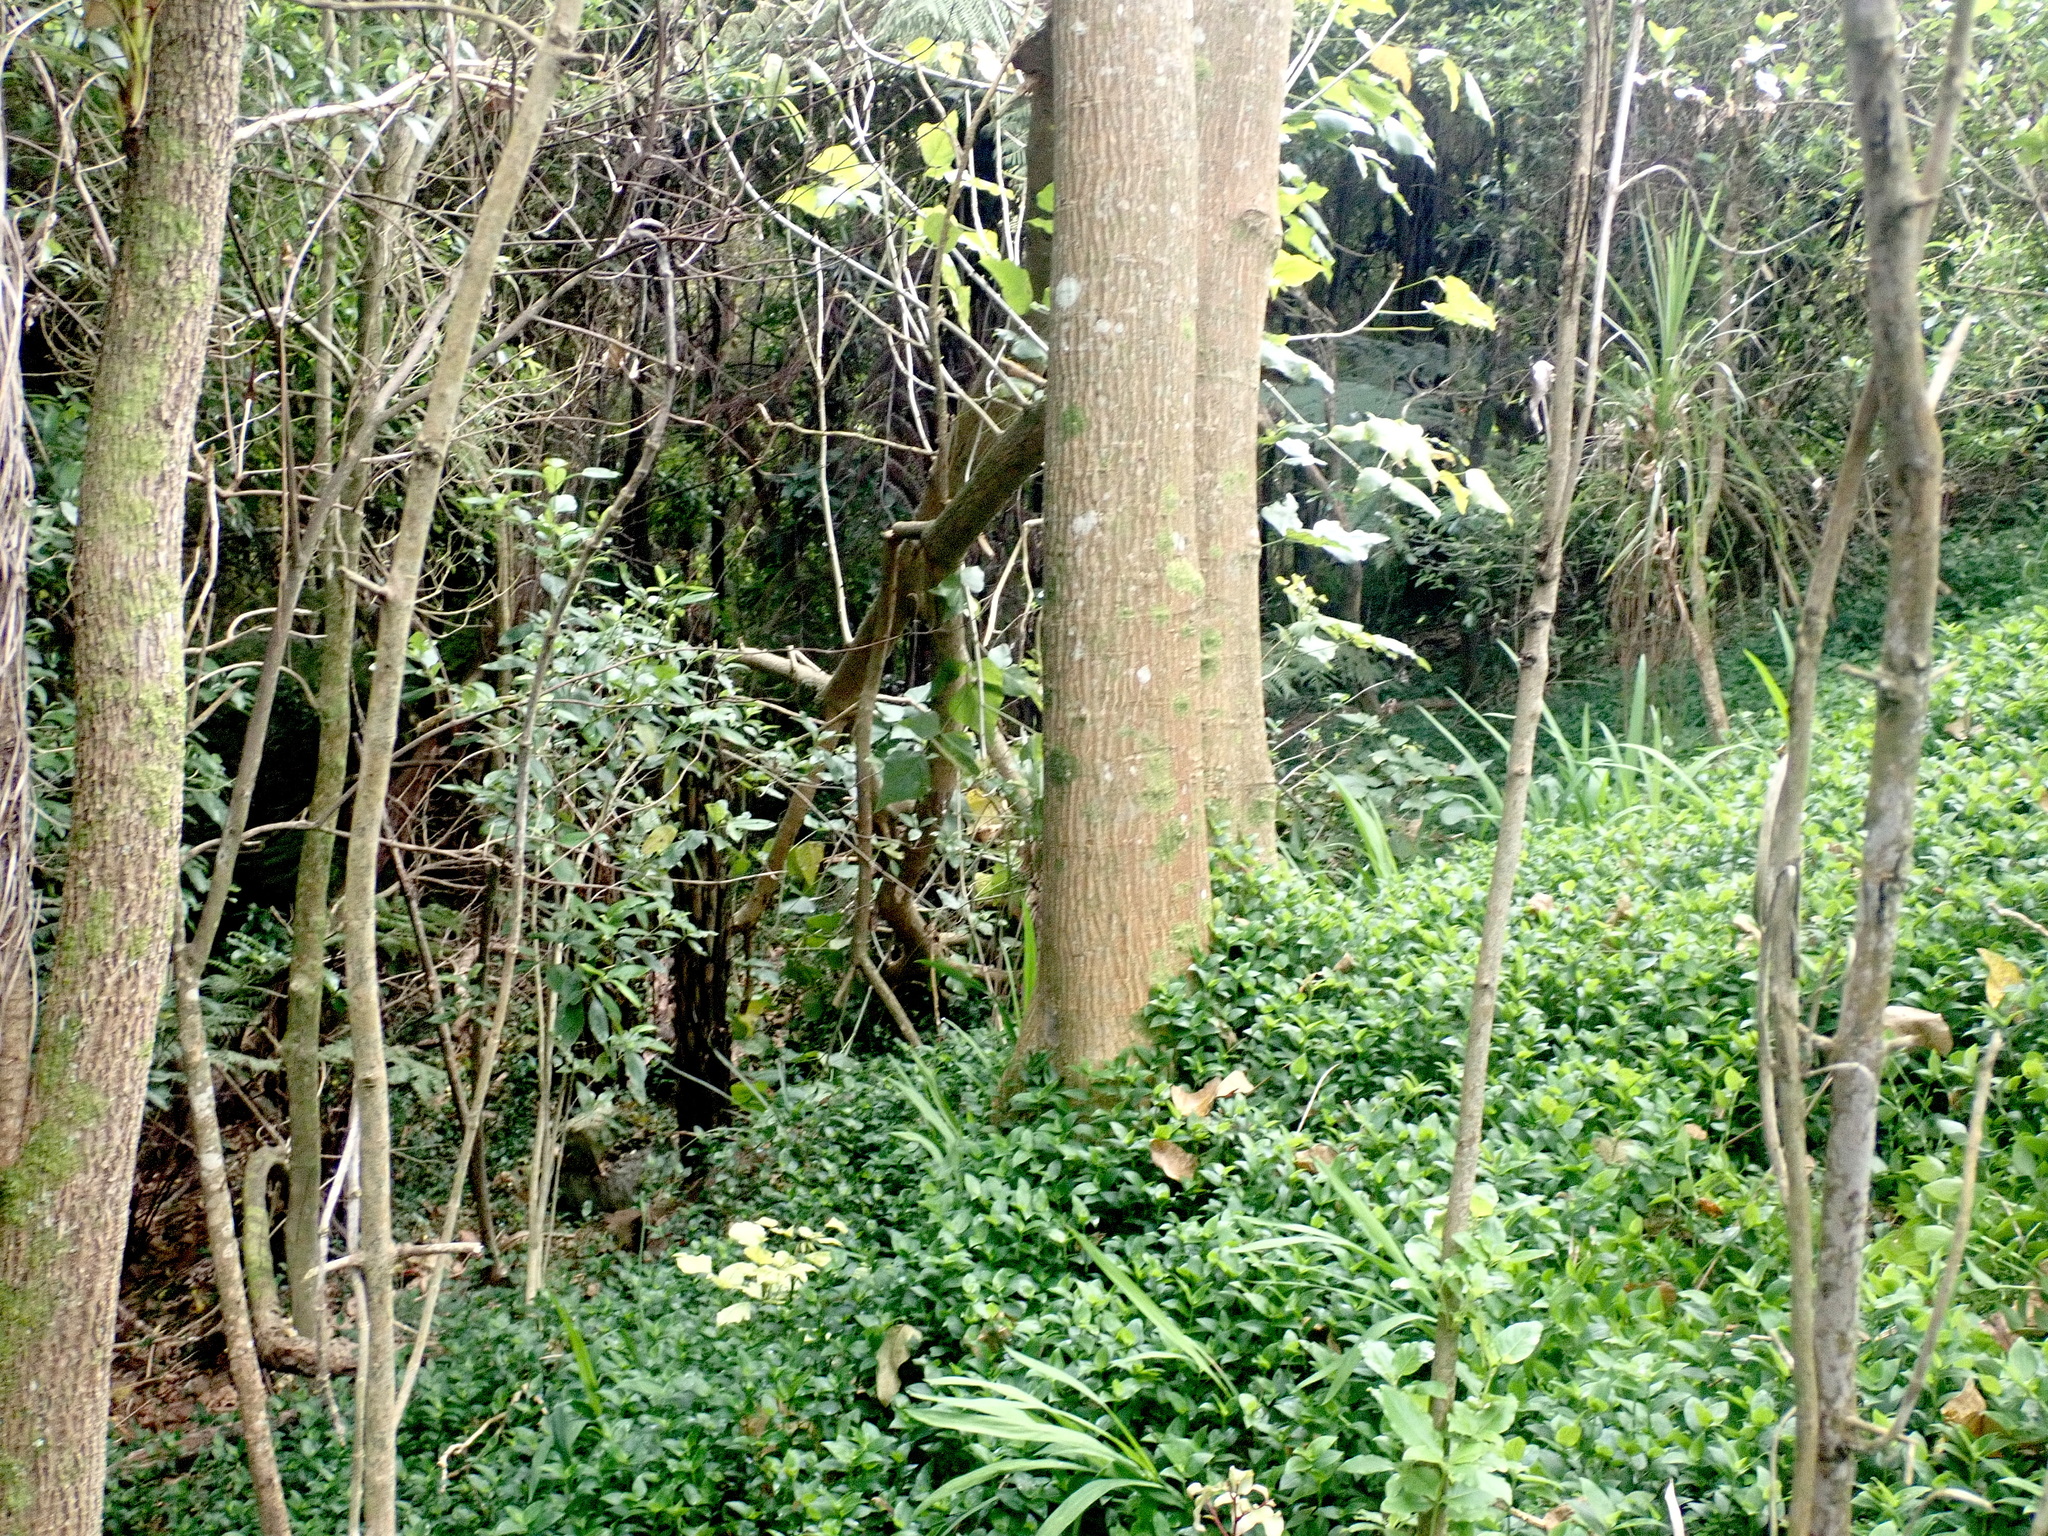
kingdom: Plantae
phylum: Tracheophyta
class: Liliopsida
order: Commelinales
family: Commelinaceae
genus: Tradescantia
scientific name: Tradescantia fluminensis
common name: Wandering-jew
